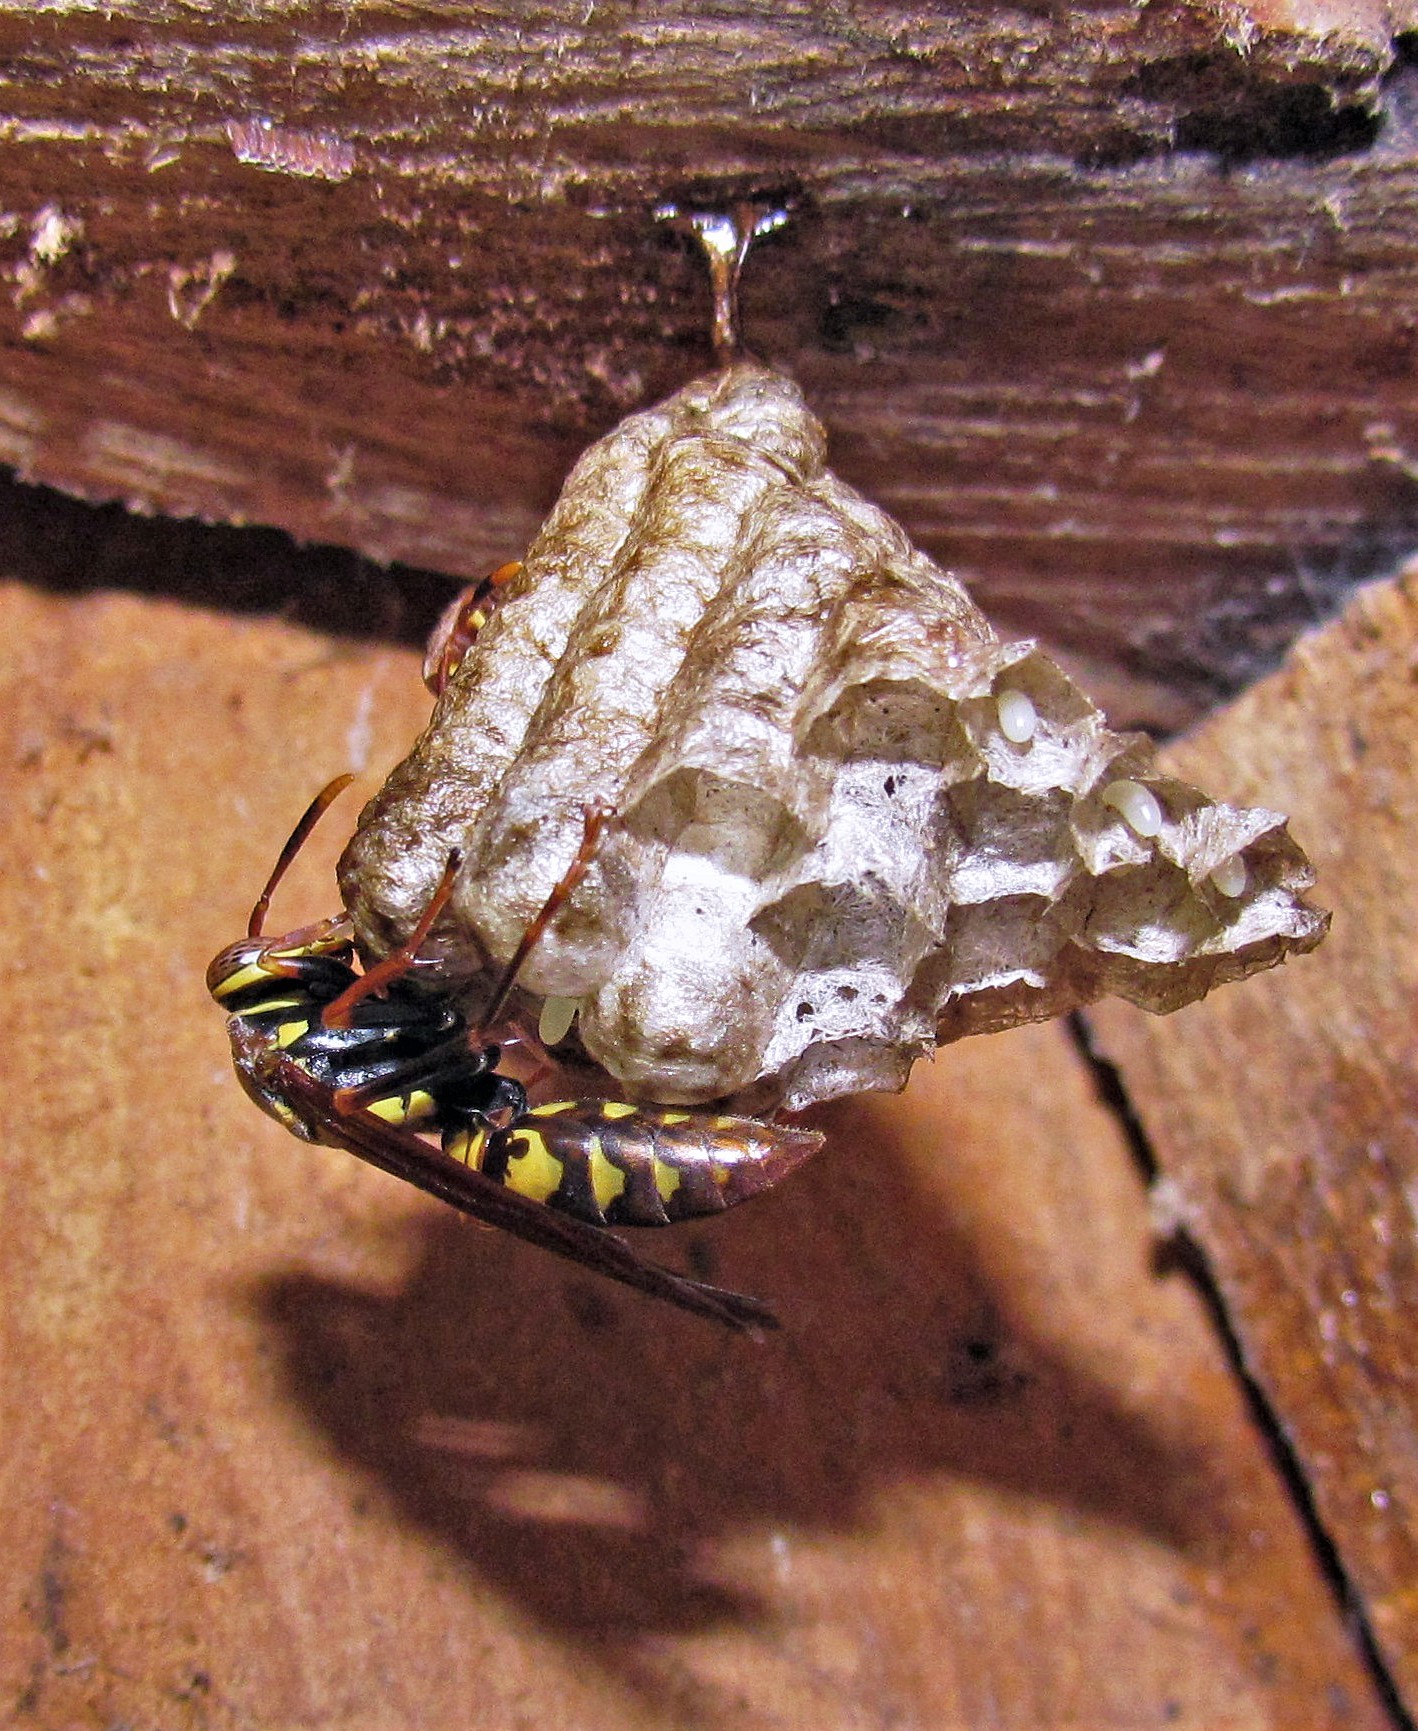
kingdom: Animalia
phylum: Arthropoda
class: Insecta
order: Hymenoptera
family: Eumenidae
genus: Polistes
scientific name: Polistes versicolor
